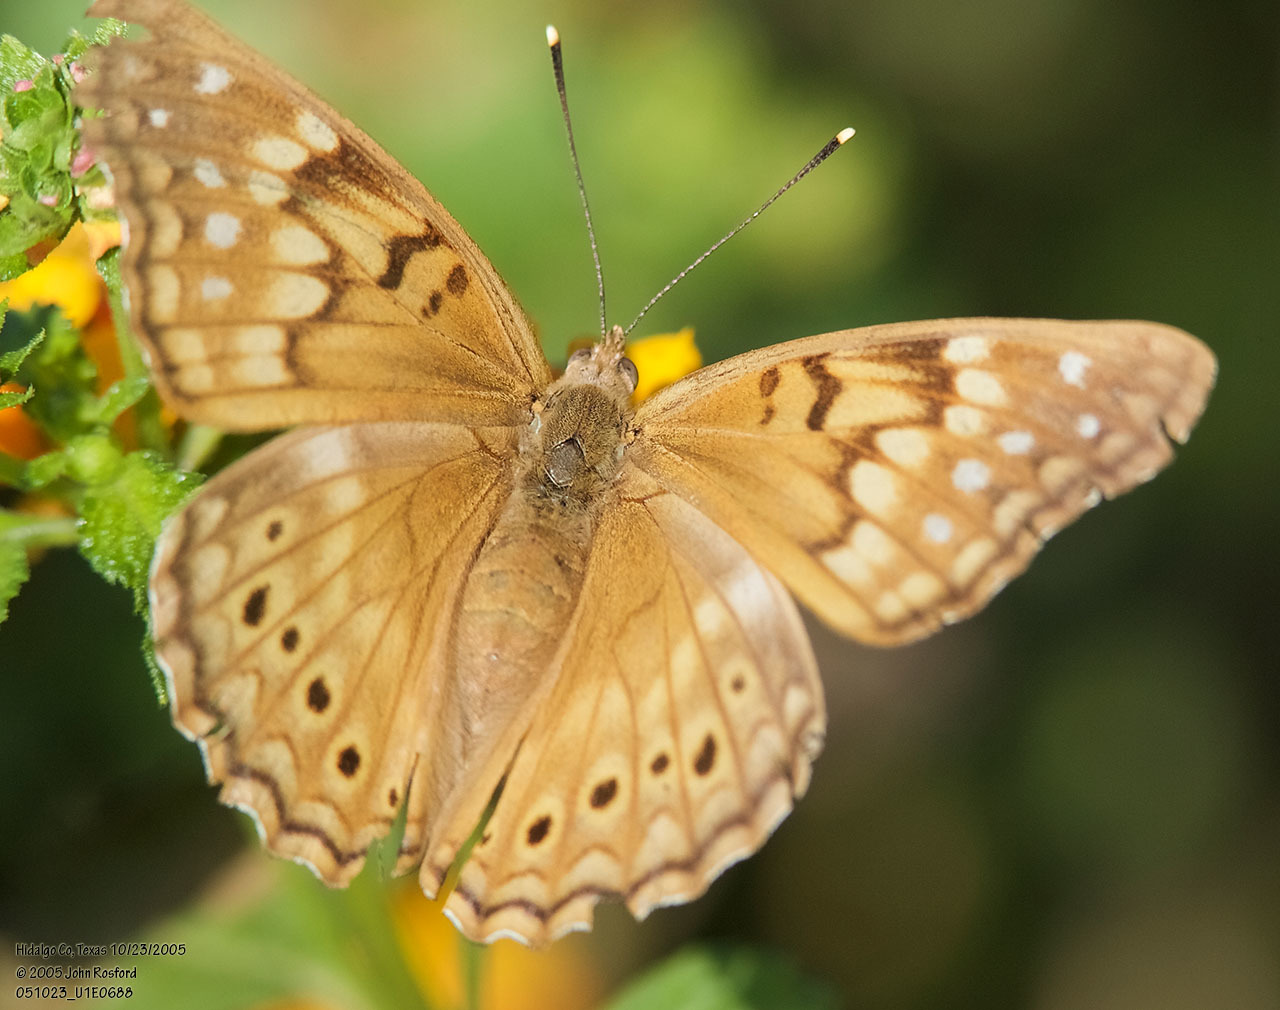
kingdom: Animalia
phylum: Arthropoda
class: Insecta
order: Lepidoptera
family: Nymphalidae
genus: Asterocampa
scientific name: Asterocampa clyton
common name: Tawny emperor
